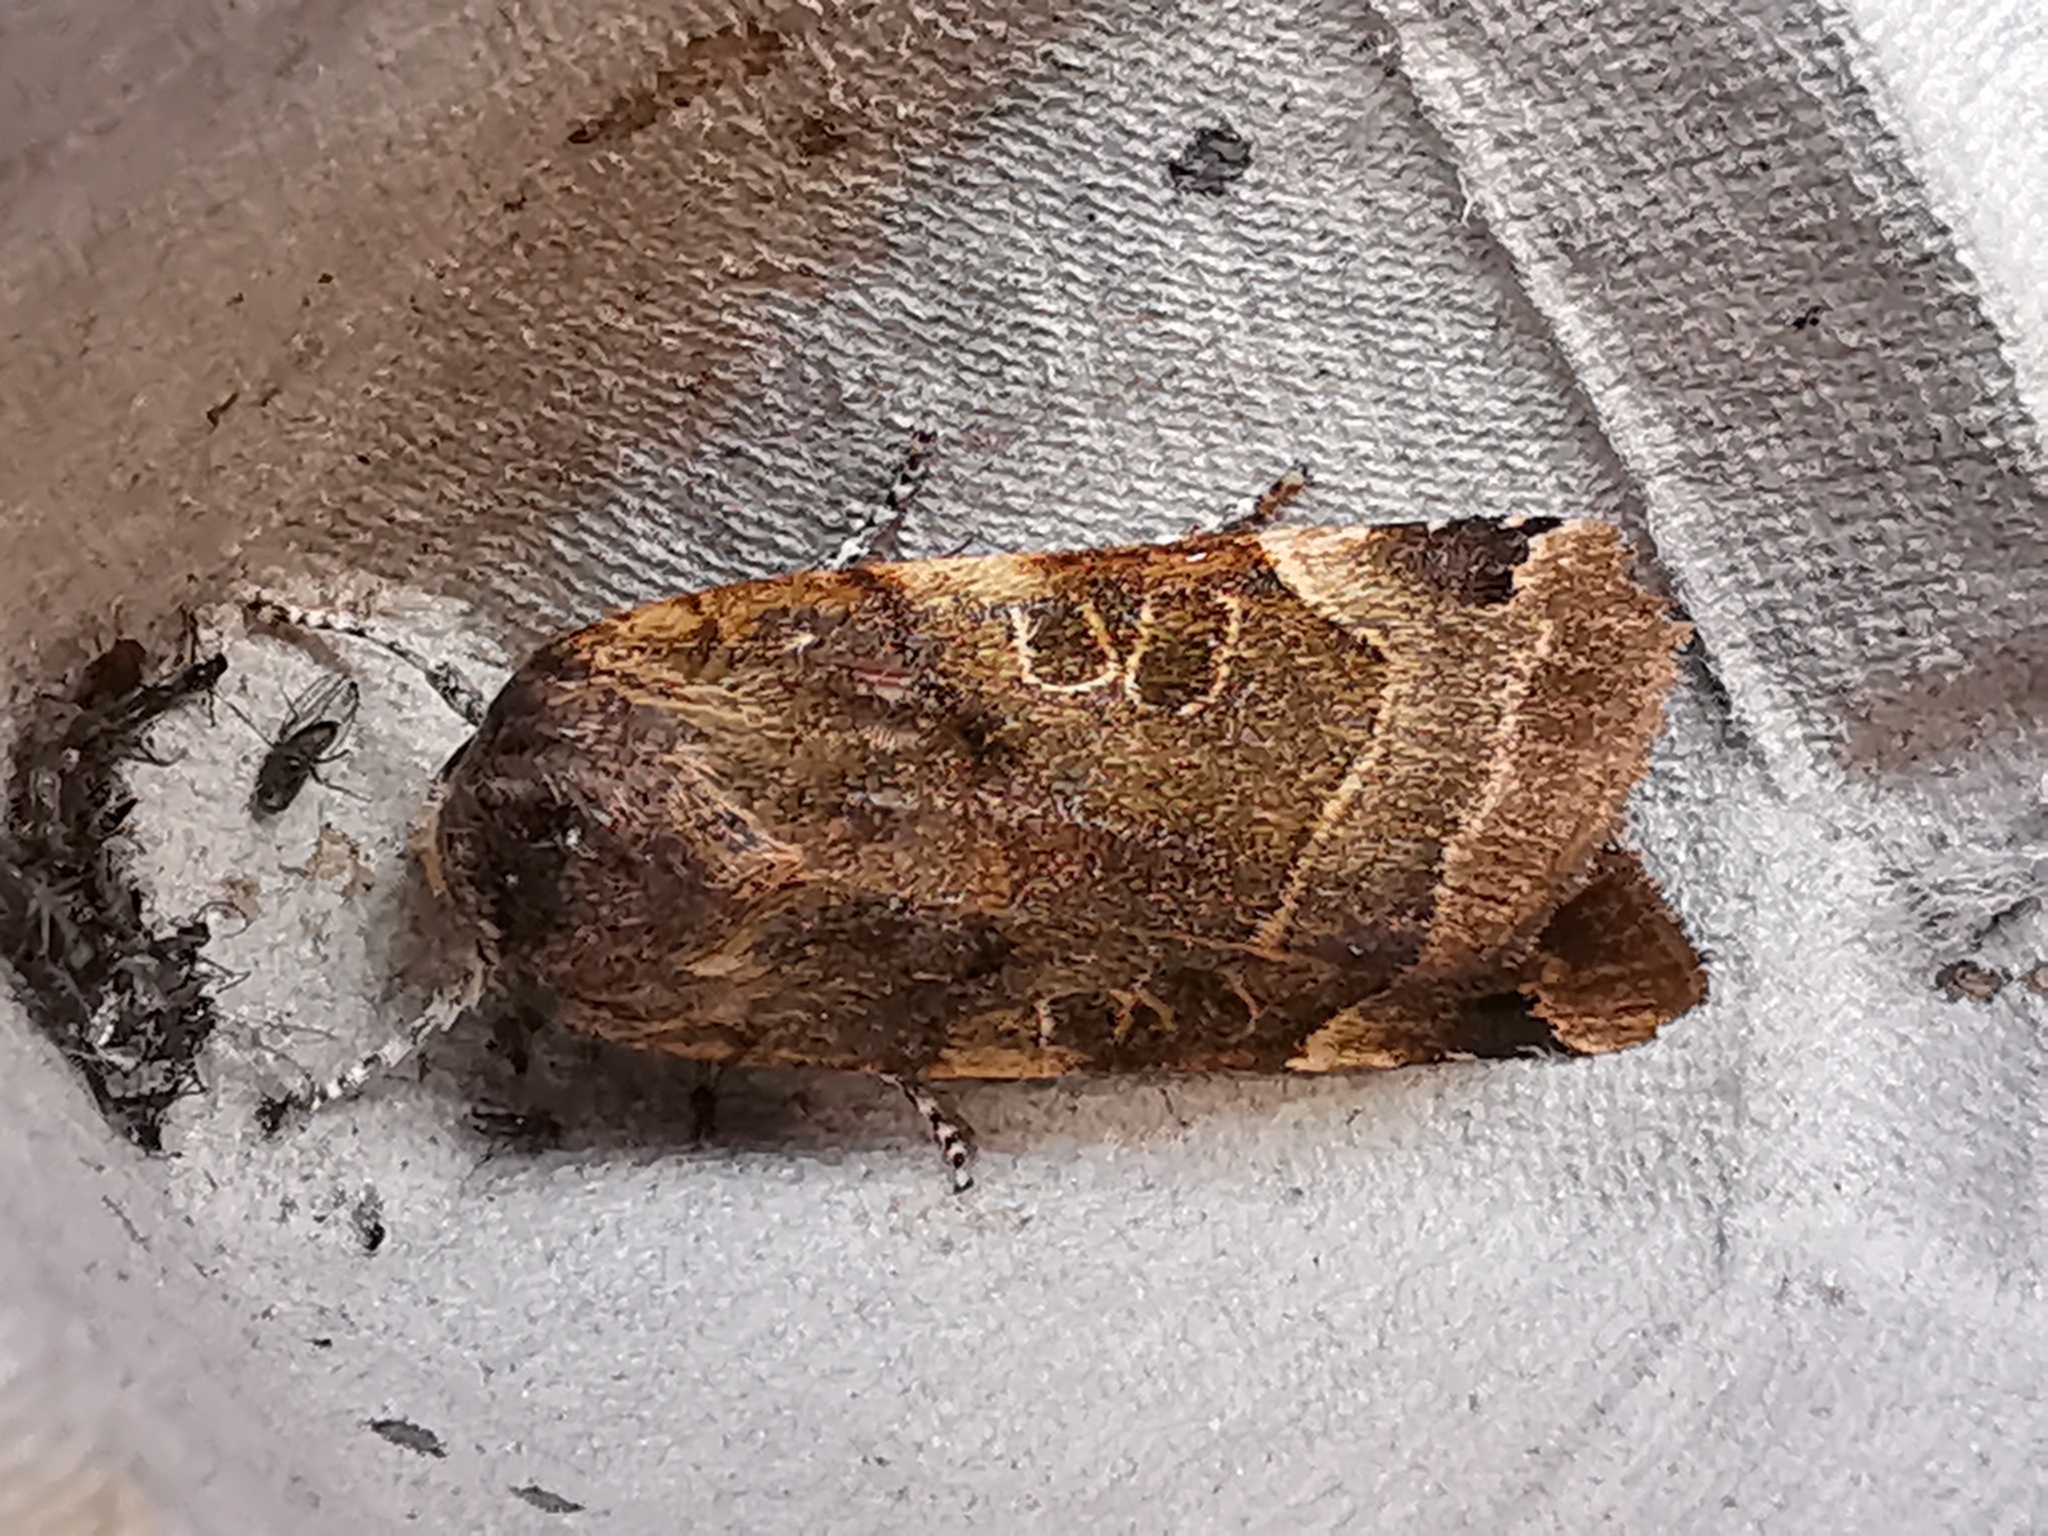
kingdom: Animalia
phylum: Arthropoda
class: Insecta
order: Lepidoptera
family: Noctuidae
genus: Noctua
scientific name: Noctua fimbriata
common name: Broad-bordered yellow underwing
